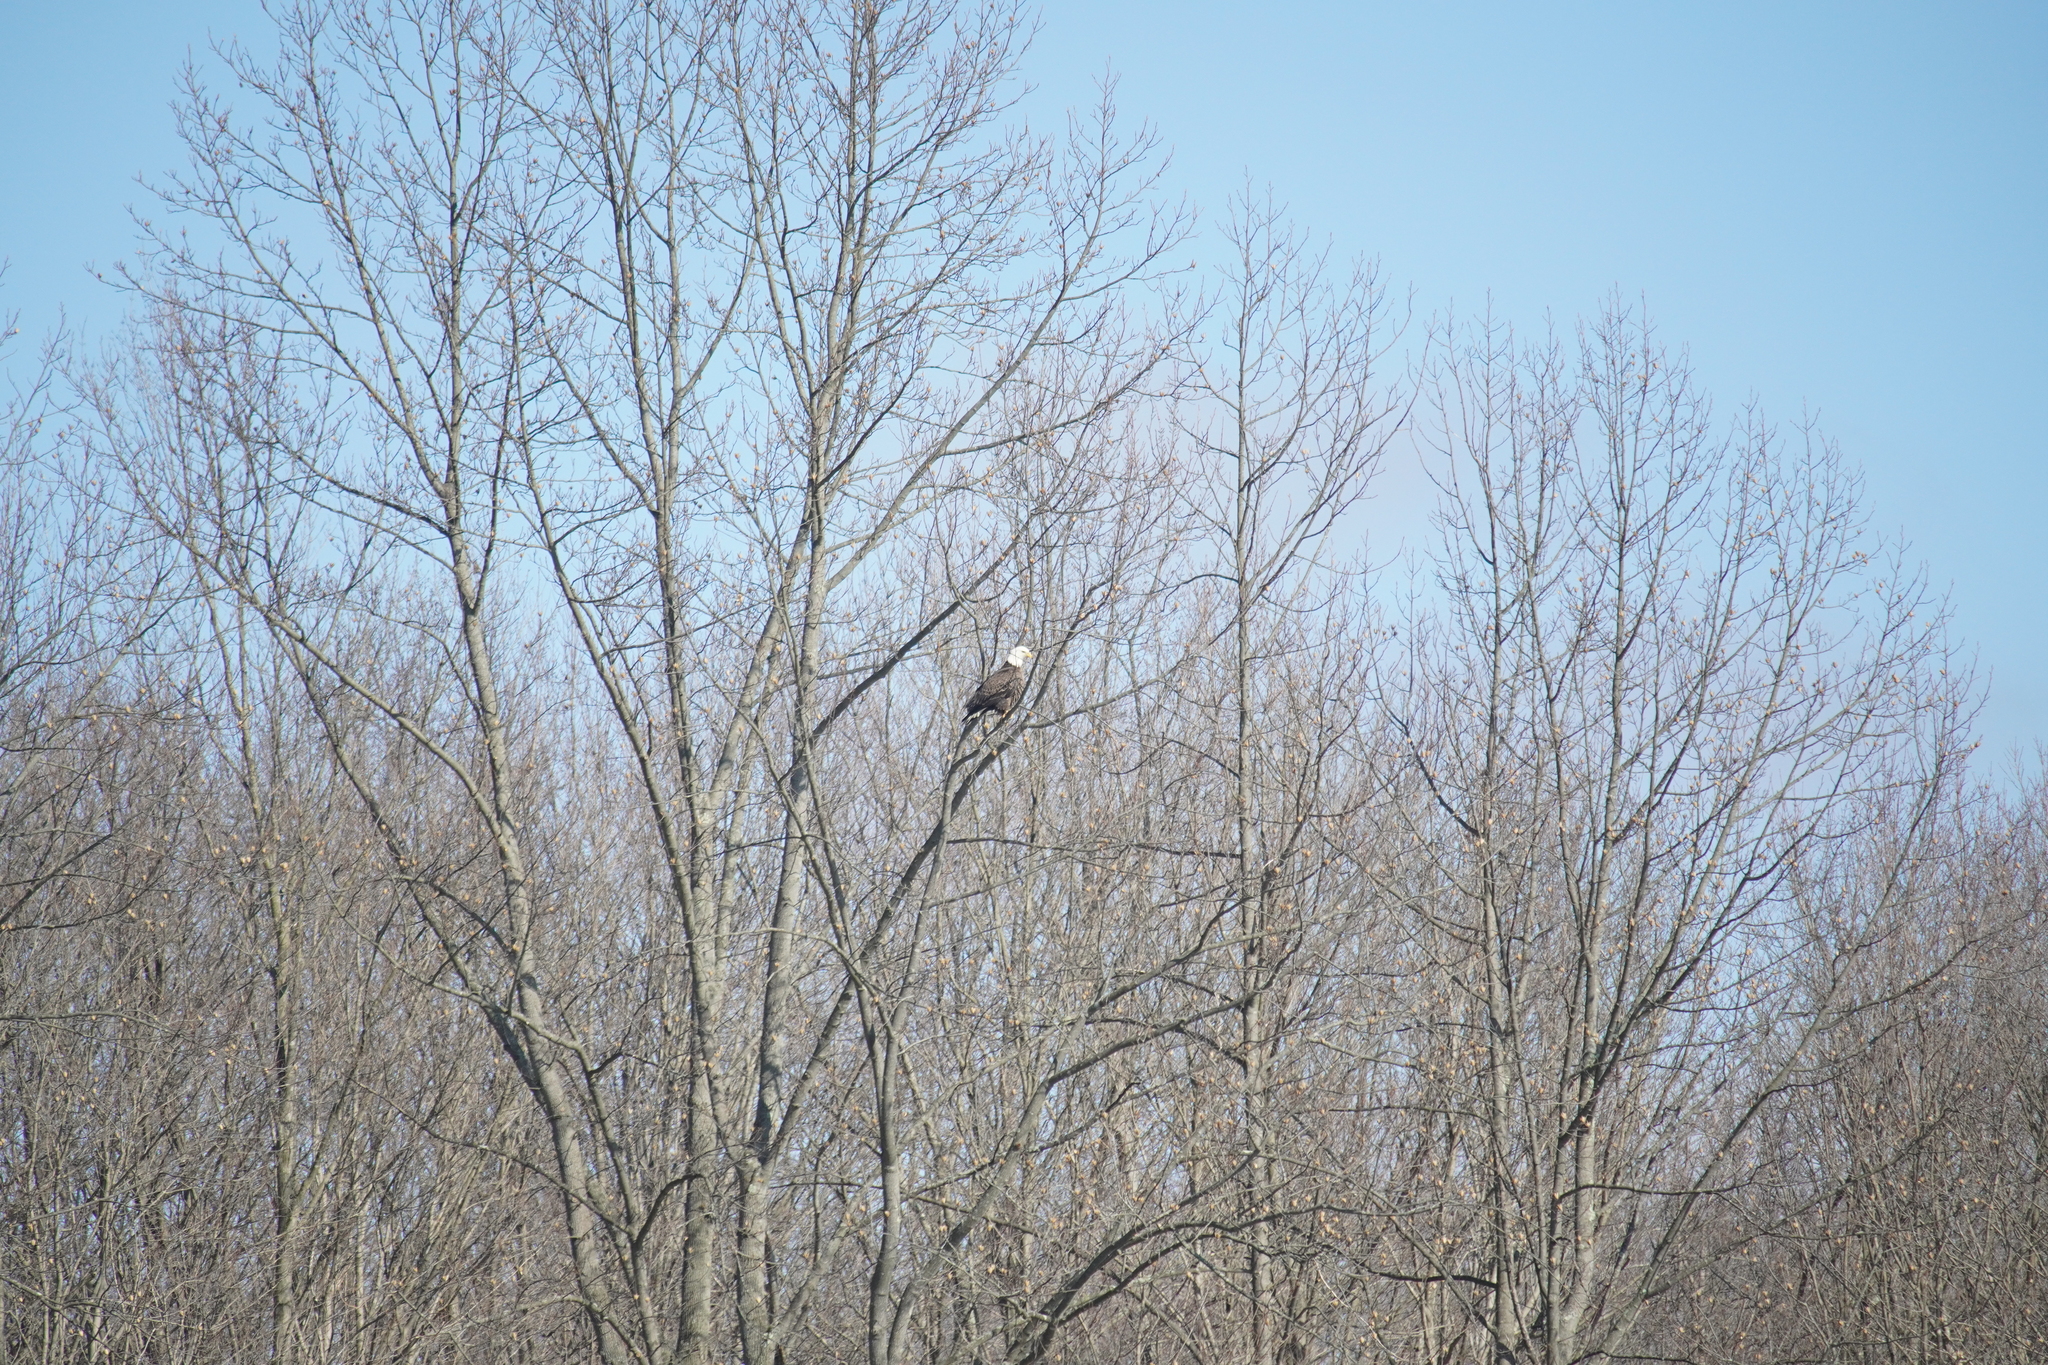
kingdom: Animalia
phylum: Chordata
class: Aves
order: Accipitriformes
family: Accipitridae
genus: Haliaeetus
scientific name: Haliaeetus leucocephalus
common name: Bald eagle
